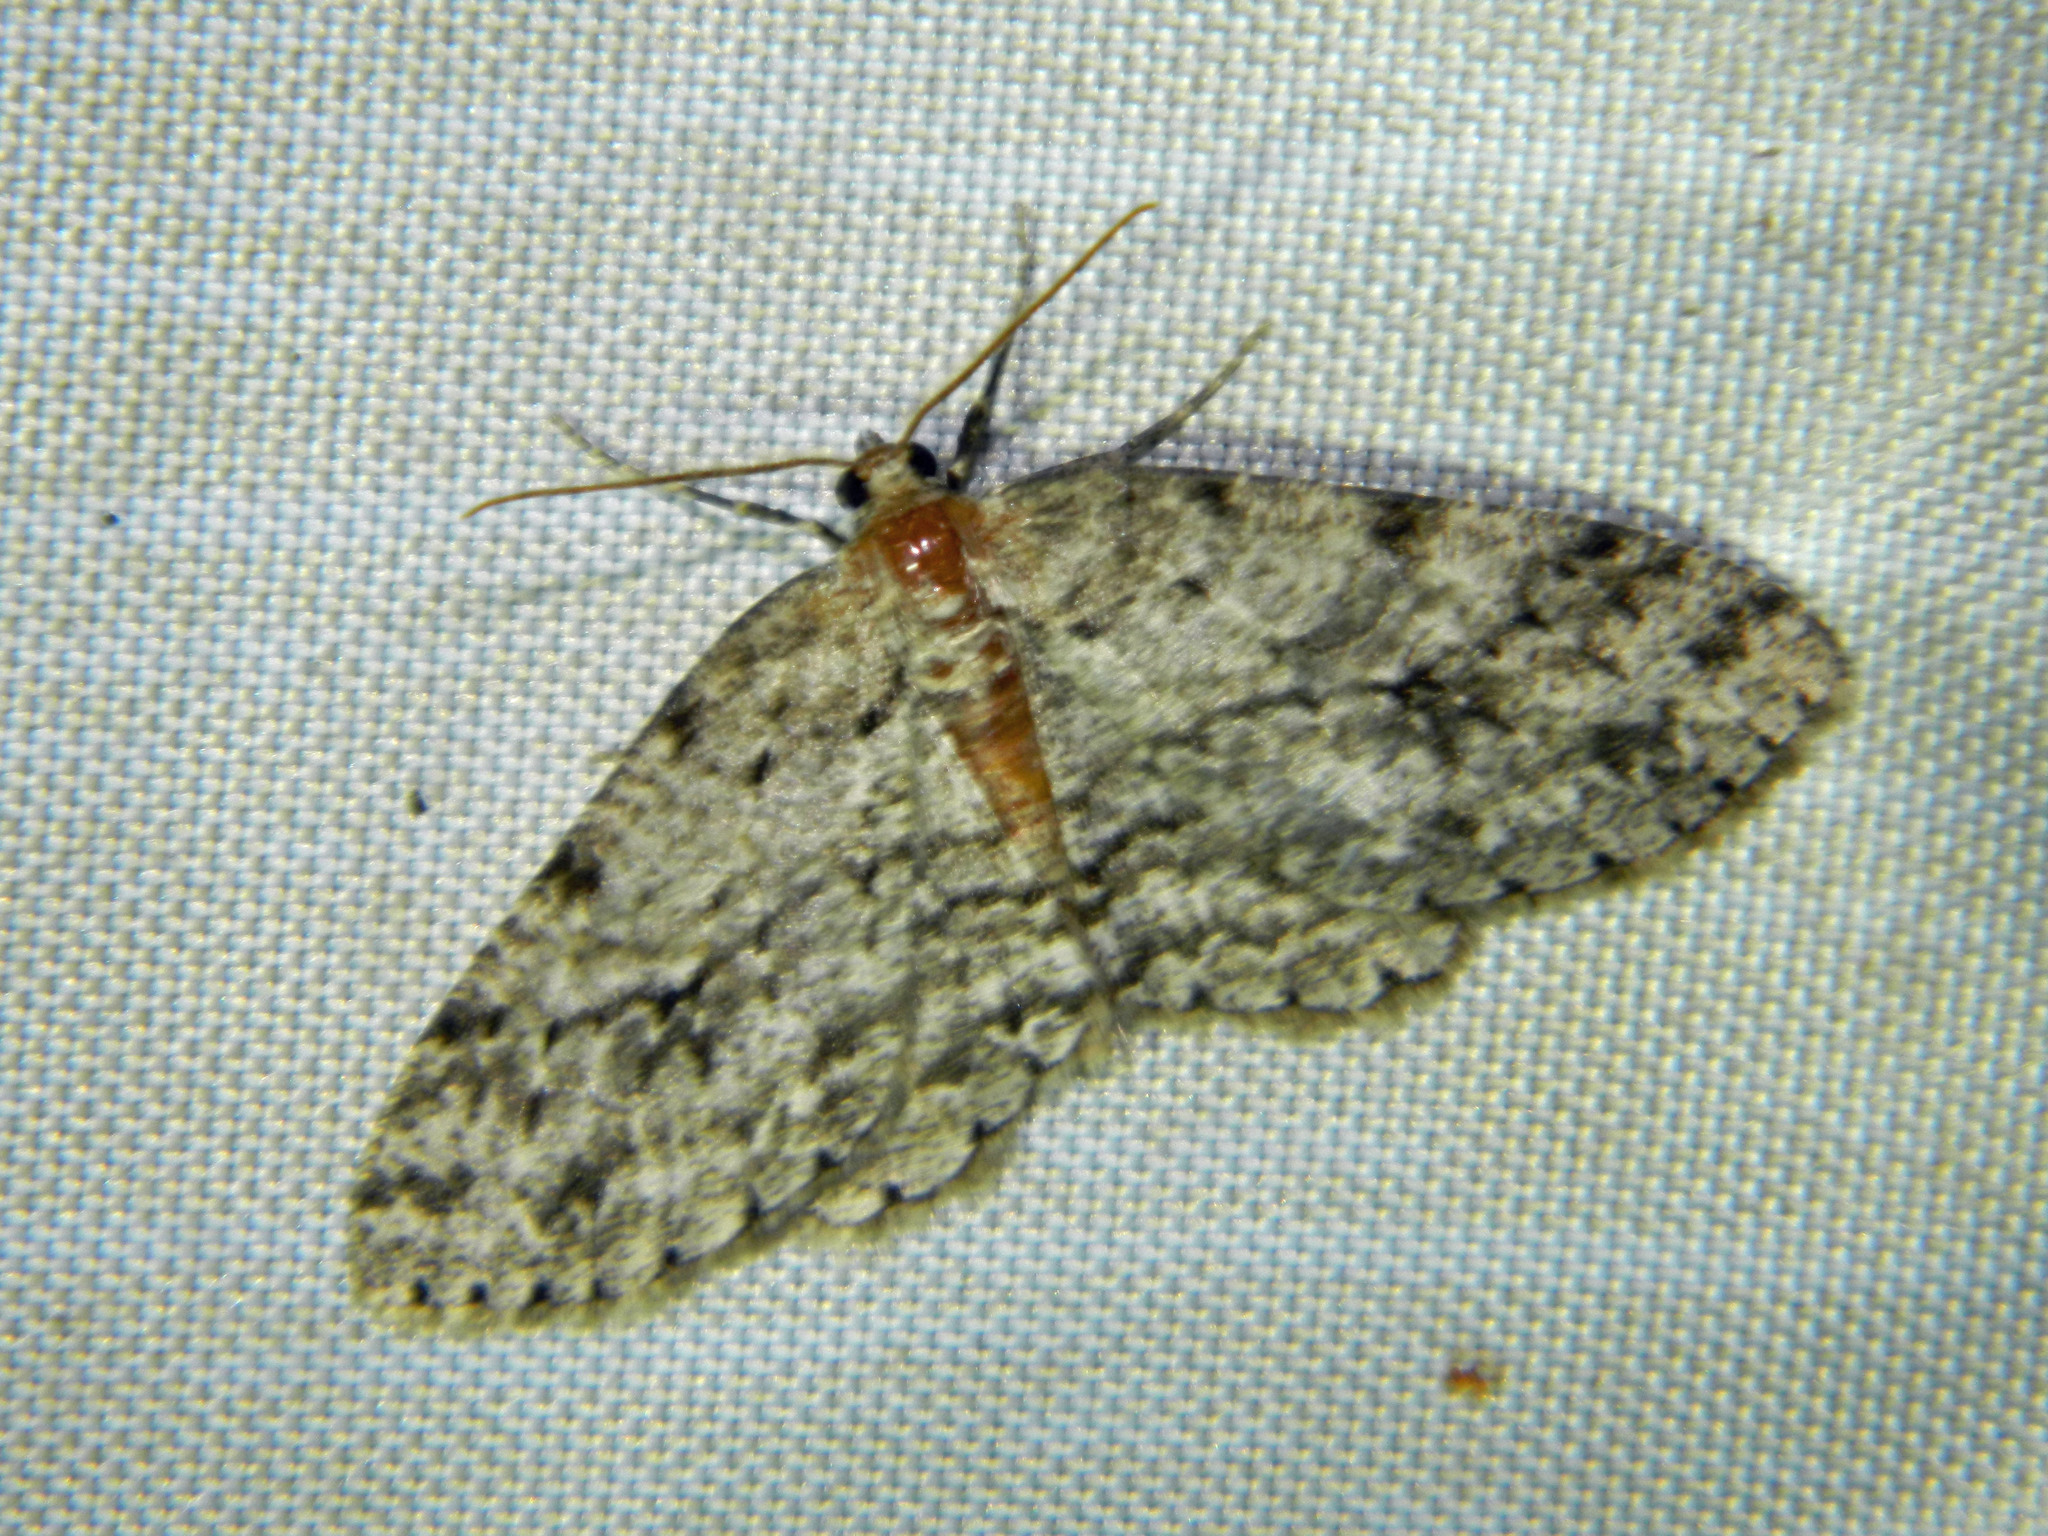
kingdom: Animalia
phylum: Arthropoda
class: Insecta
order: Lepidoptera
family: Geometridae
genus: Ectropis
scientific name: Ectropis crepuscularia
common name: Engrailed
